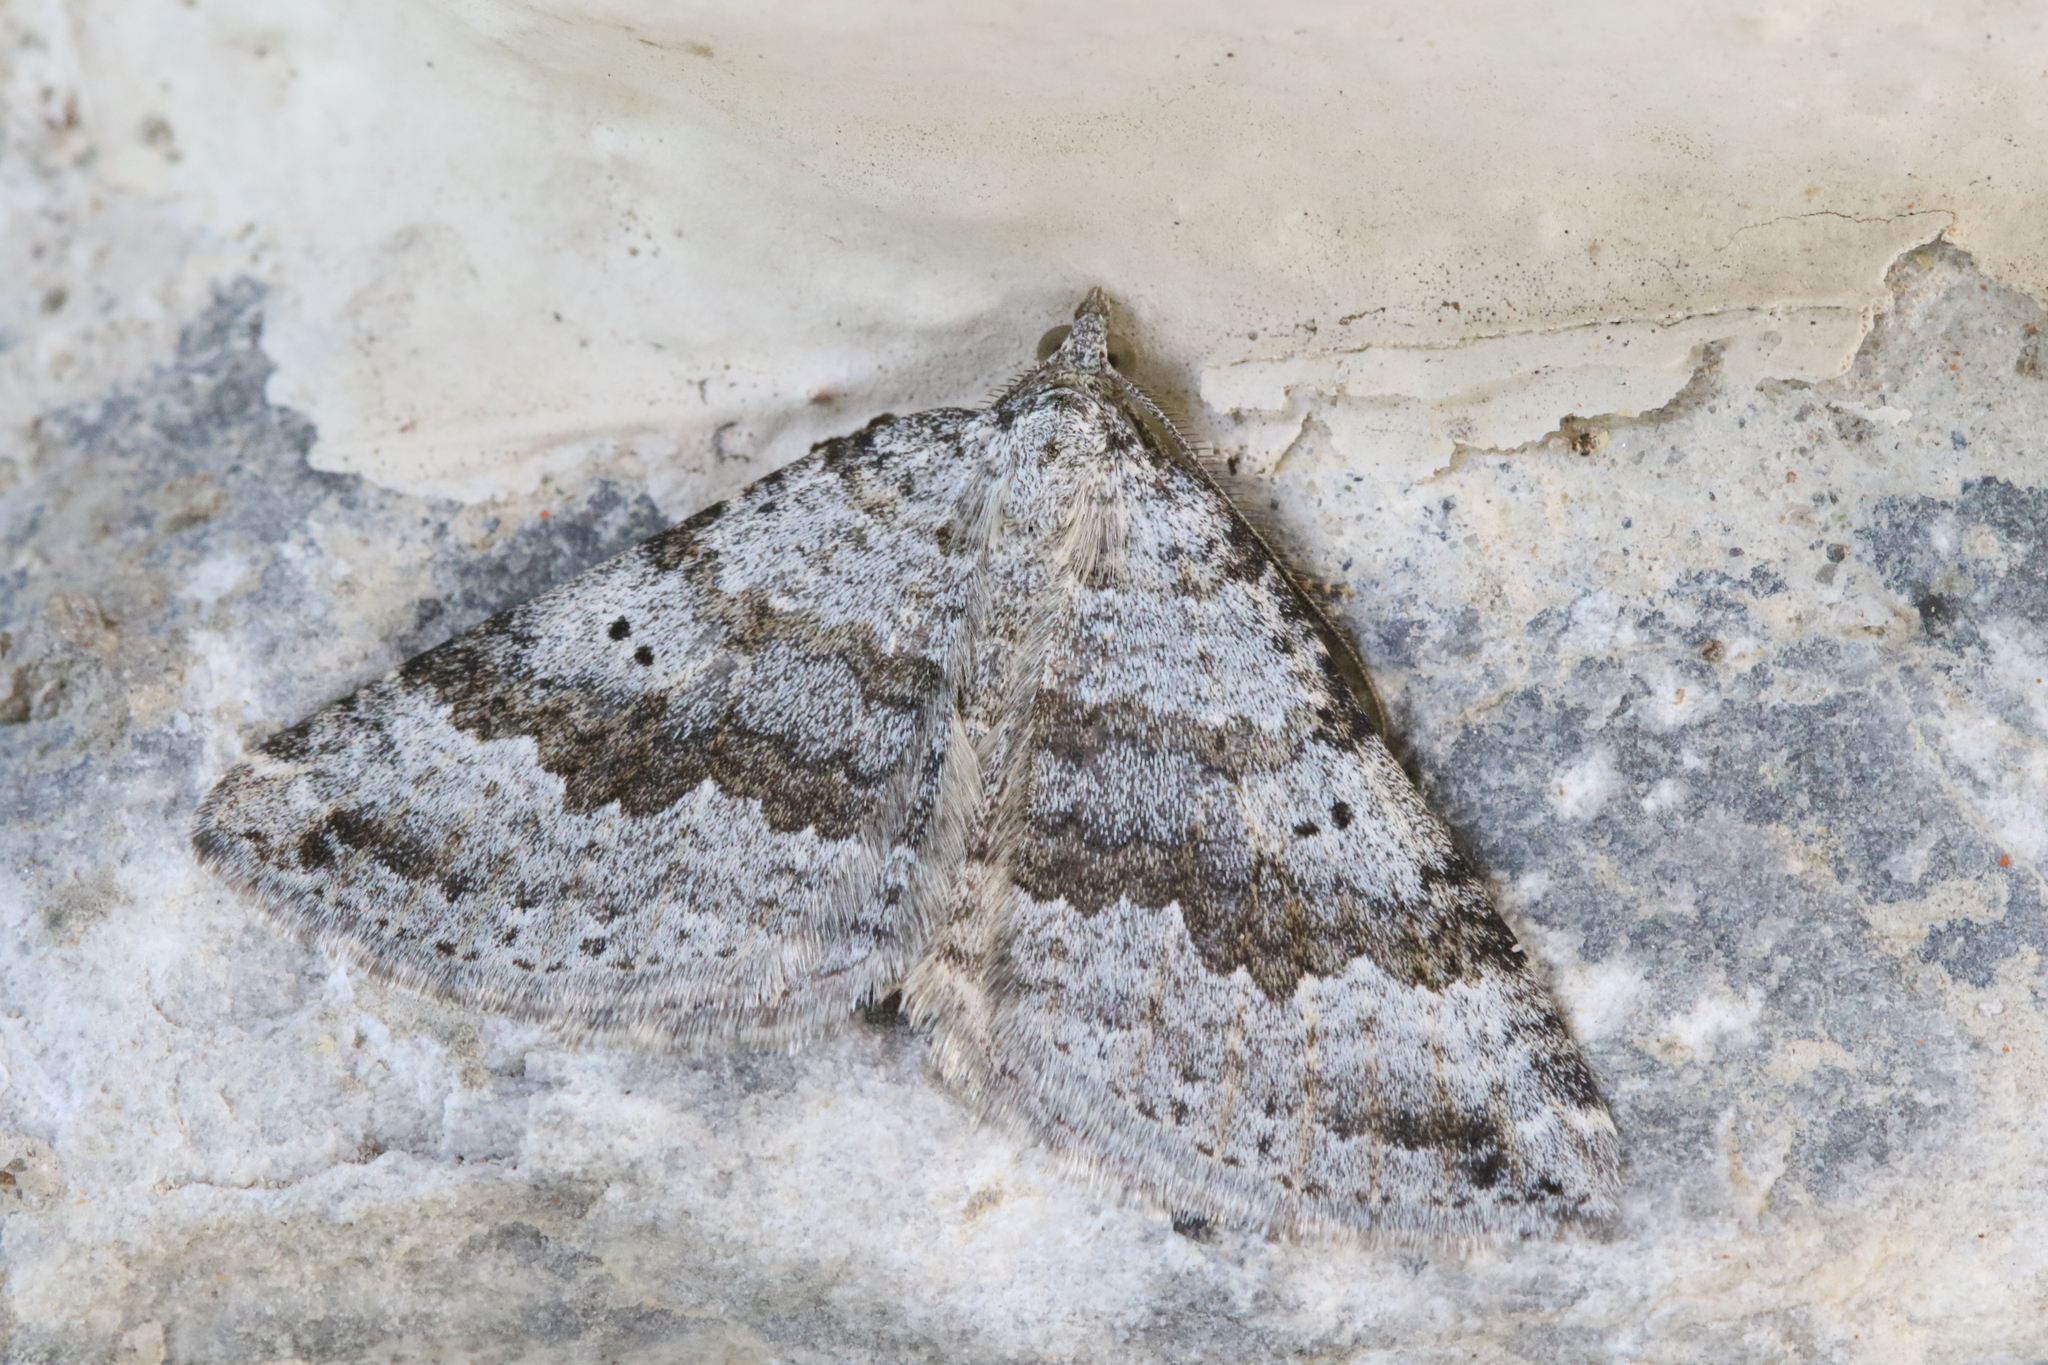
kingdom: Animalia
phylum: Arthropoda
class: Insecta
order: Lepidoptera
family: Geometridae
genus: Scotopteryx
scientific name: Scotopteryx bipunctaria
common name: Chalk carpet
